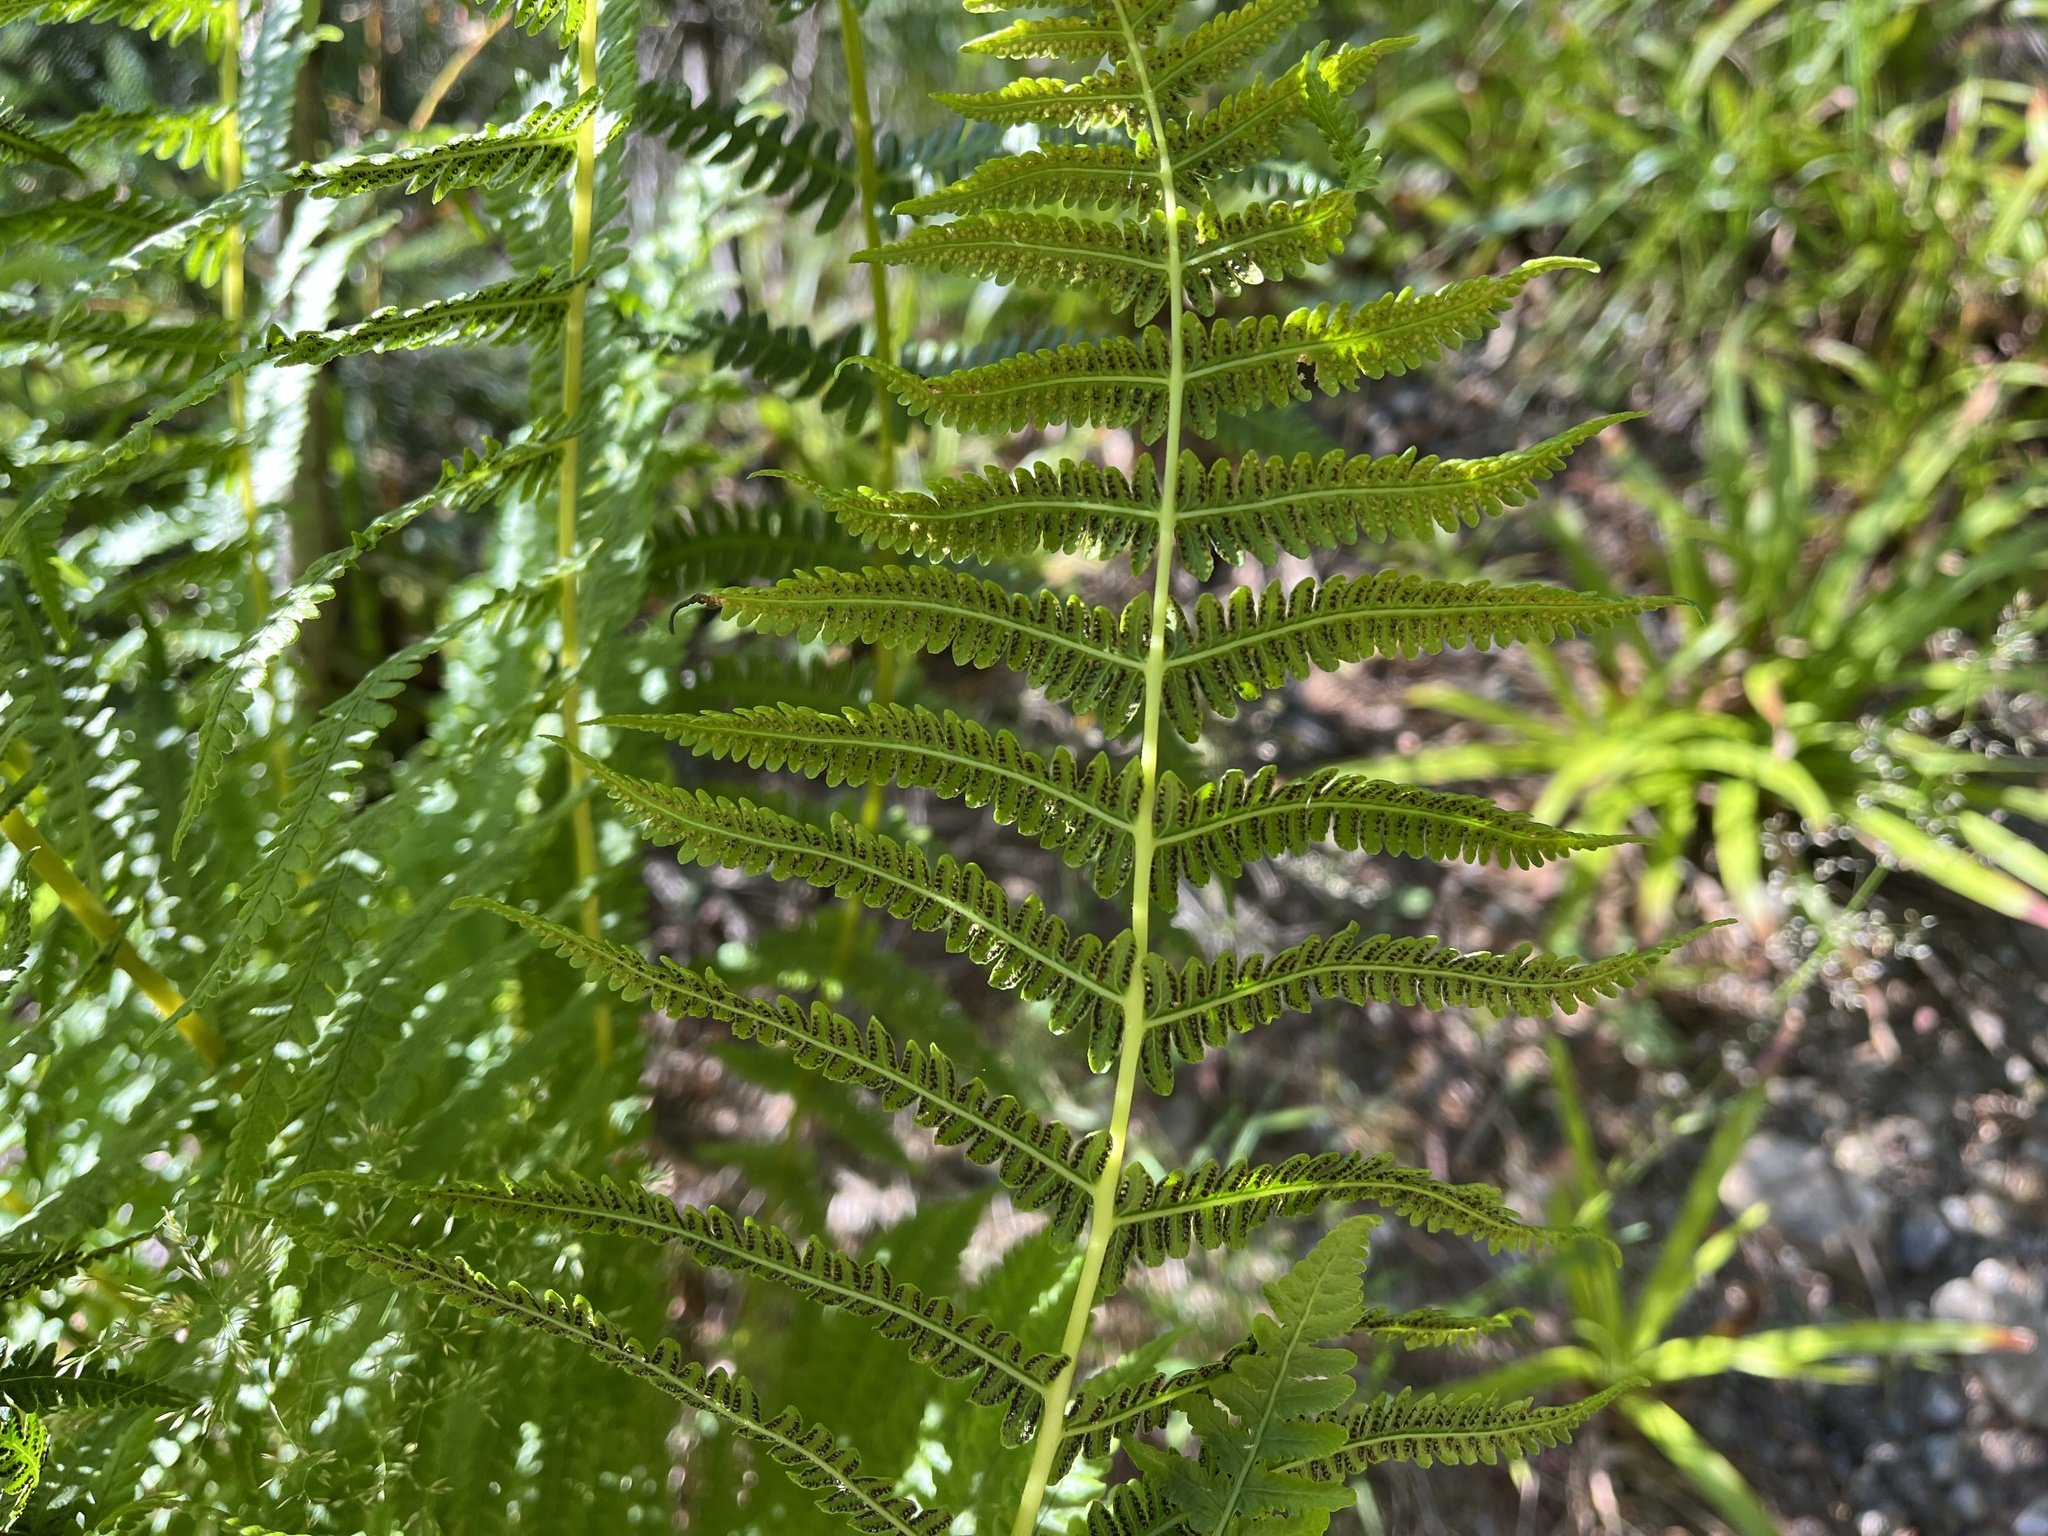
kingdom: Plantae
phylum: Tracheophyta
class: Polypodiopsida
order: Polypodiales
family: Thelypteridaceae
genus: Oreopteris
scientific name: Oreopteris limbosperma
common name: Lemon-scented fern
